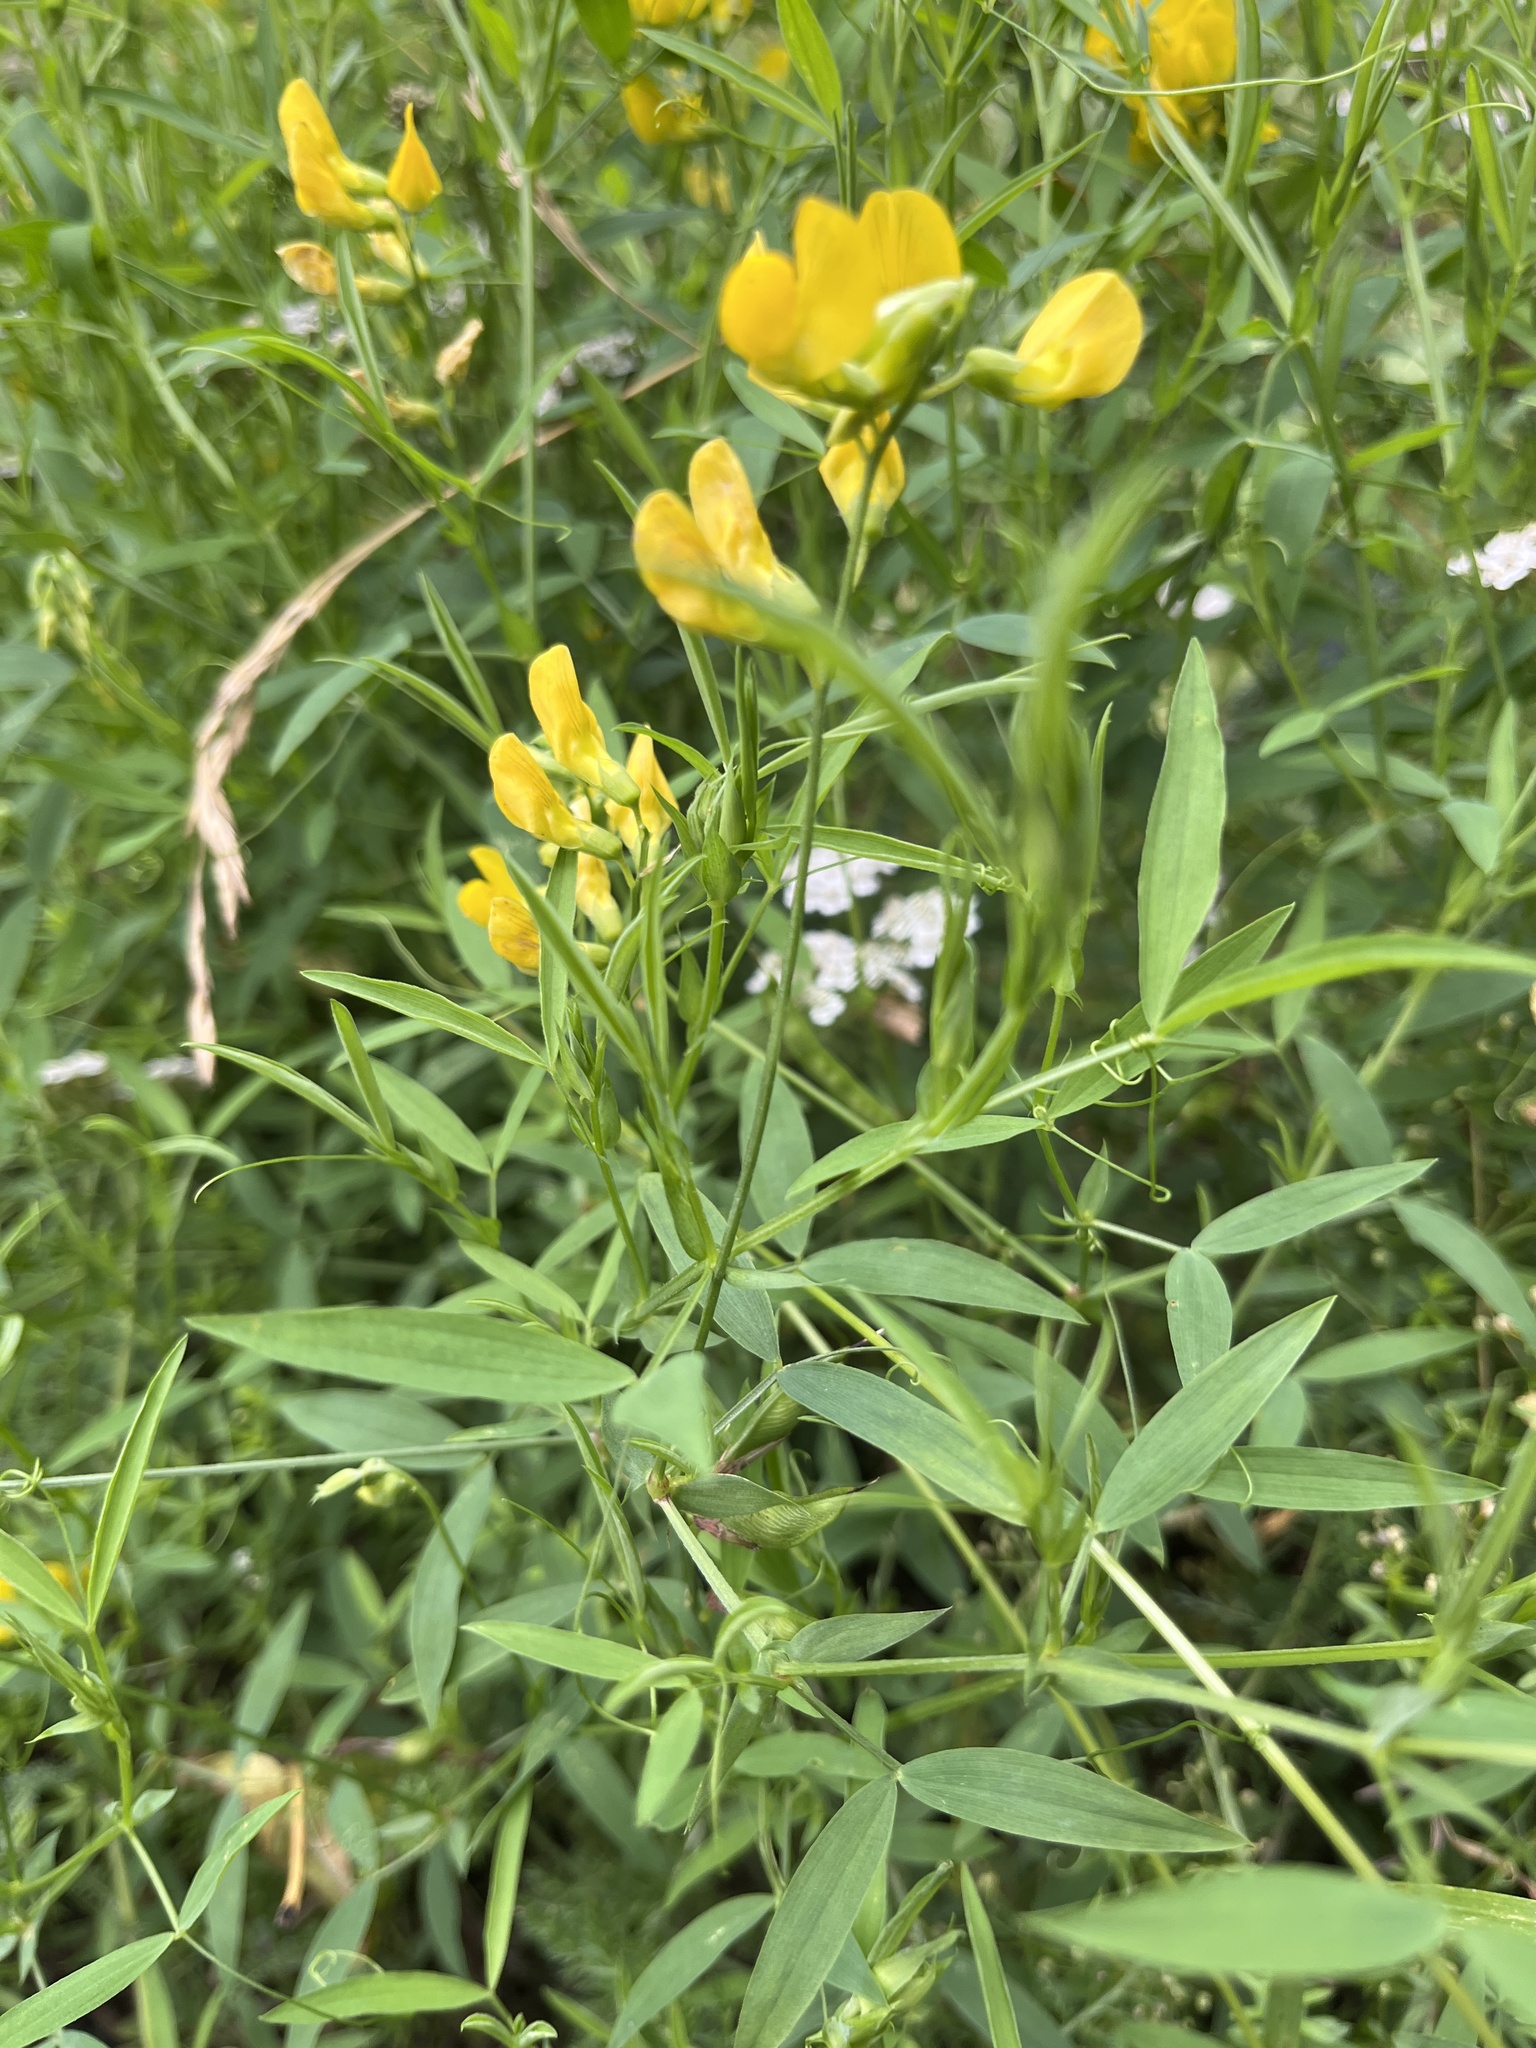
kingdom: Plantae
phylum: Tracheophyta
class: Magnoliopsida
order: Fabales
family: Fabaceae
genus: Lathyrus
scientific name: Lathyrus pratensis
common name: Meadow vetchling
